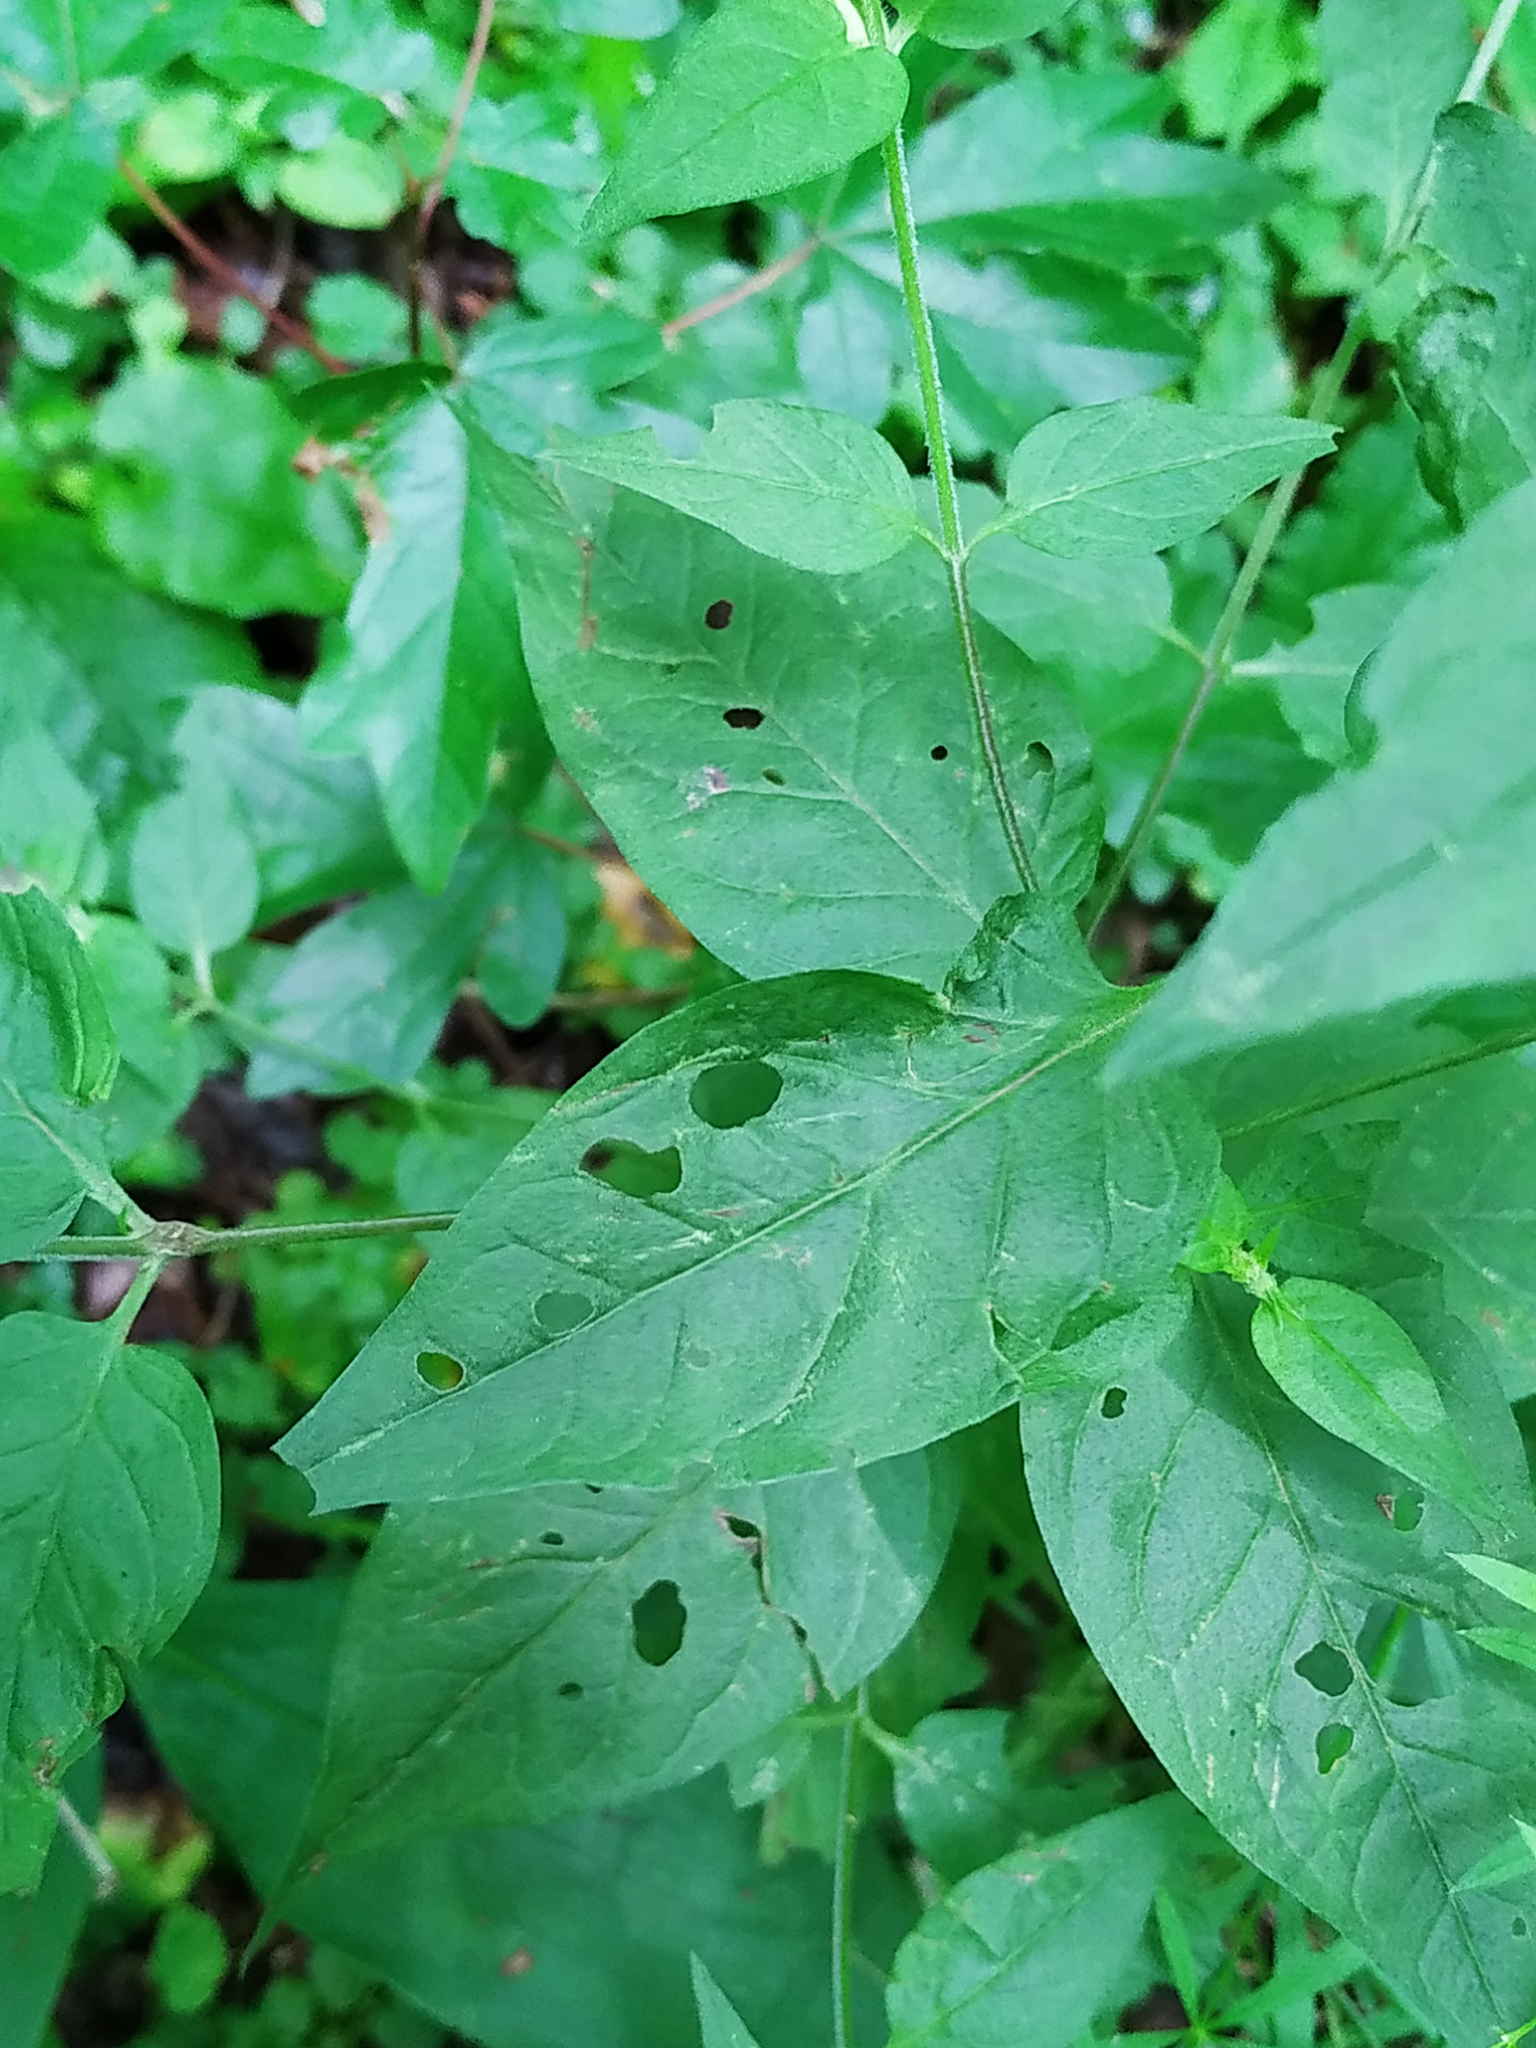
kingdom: Plantae
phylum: Tracheophyta
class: Magnoliopsida
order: Lamiales
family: Orobanchaceae
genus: Melampyrum
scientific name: Melampyrum nemorosum
